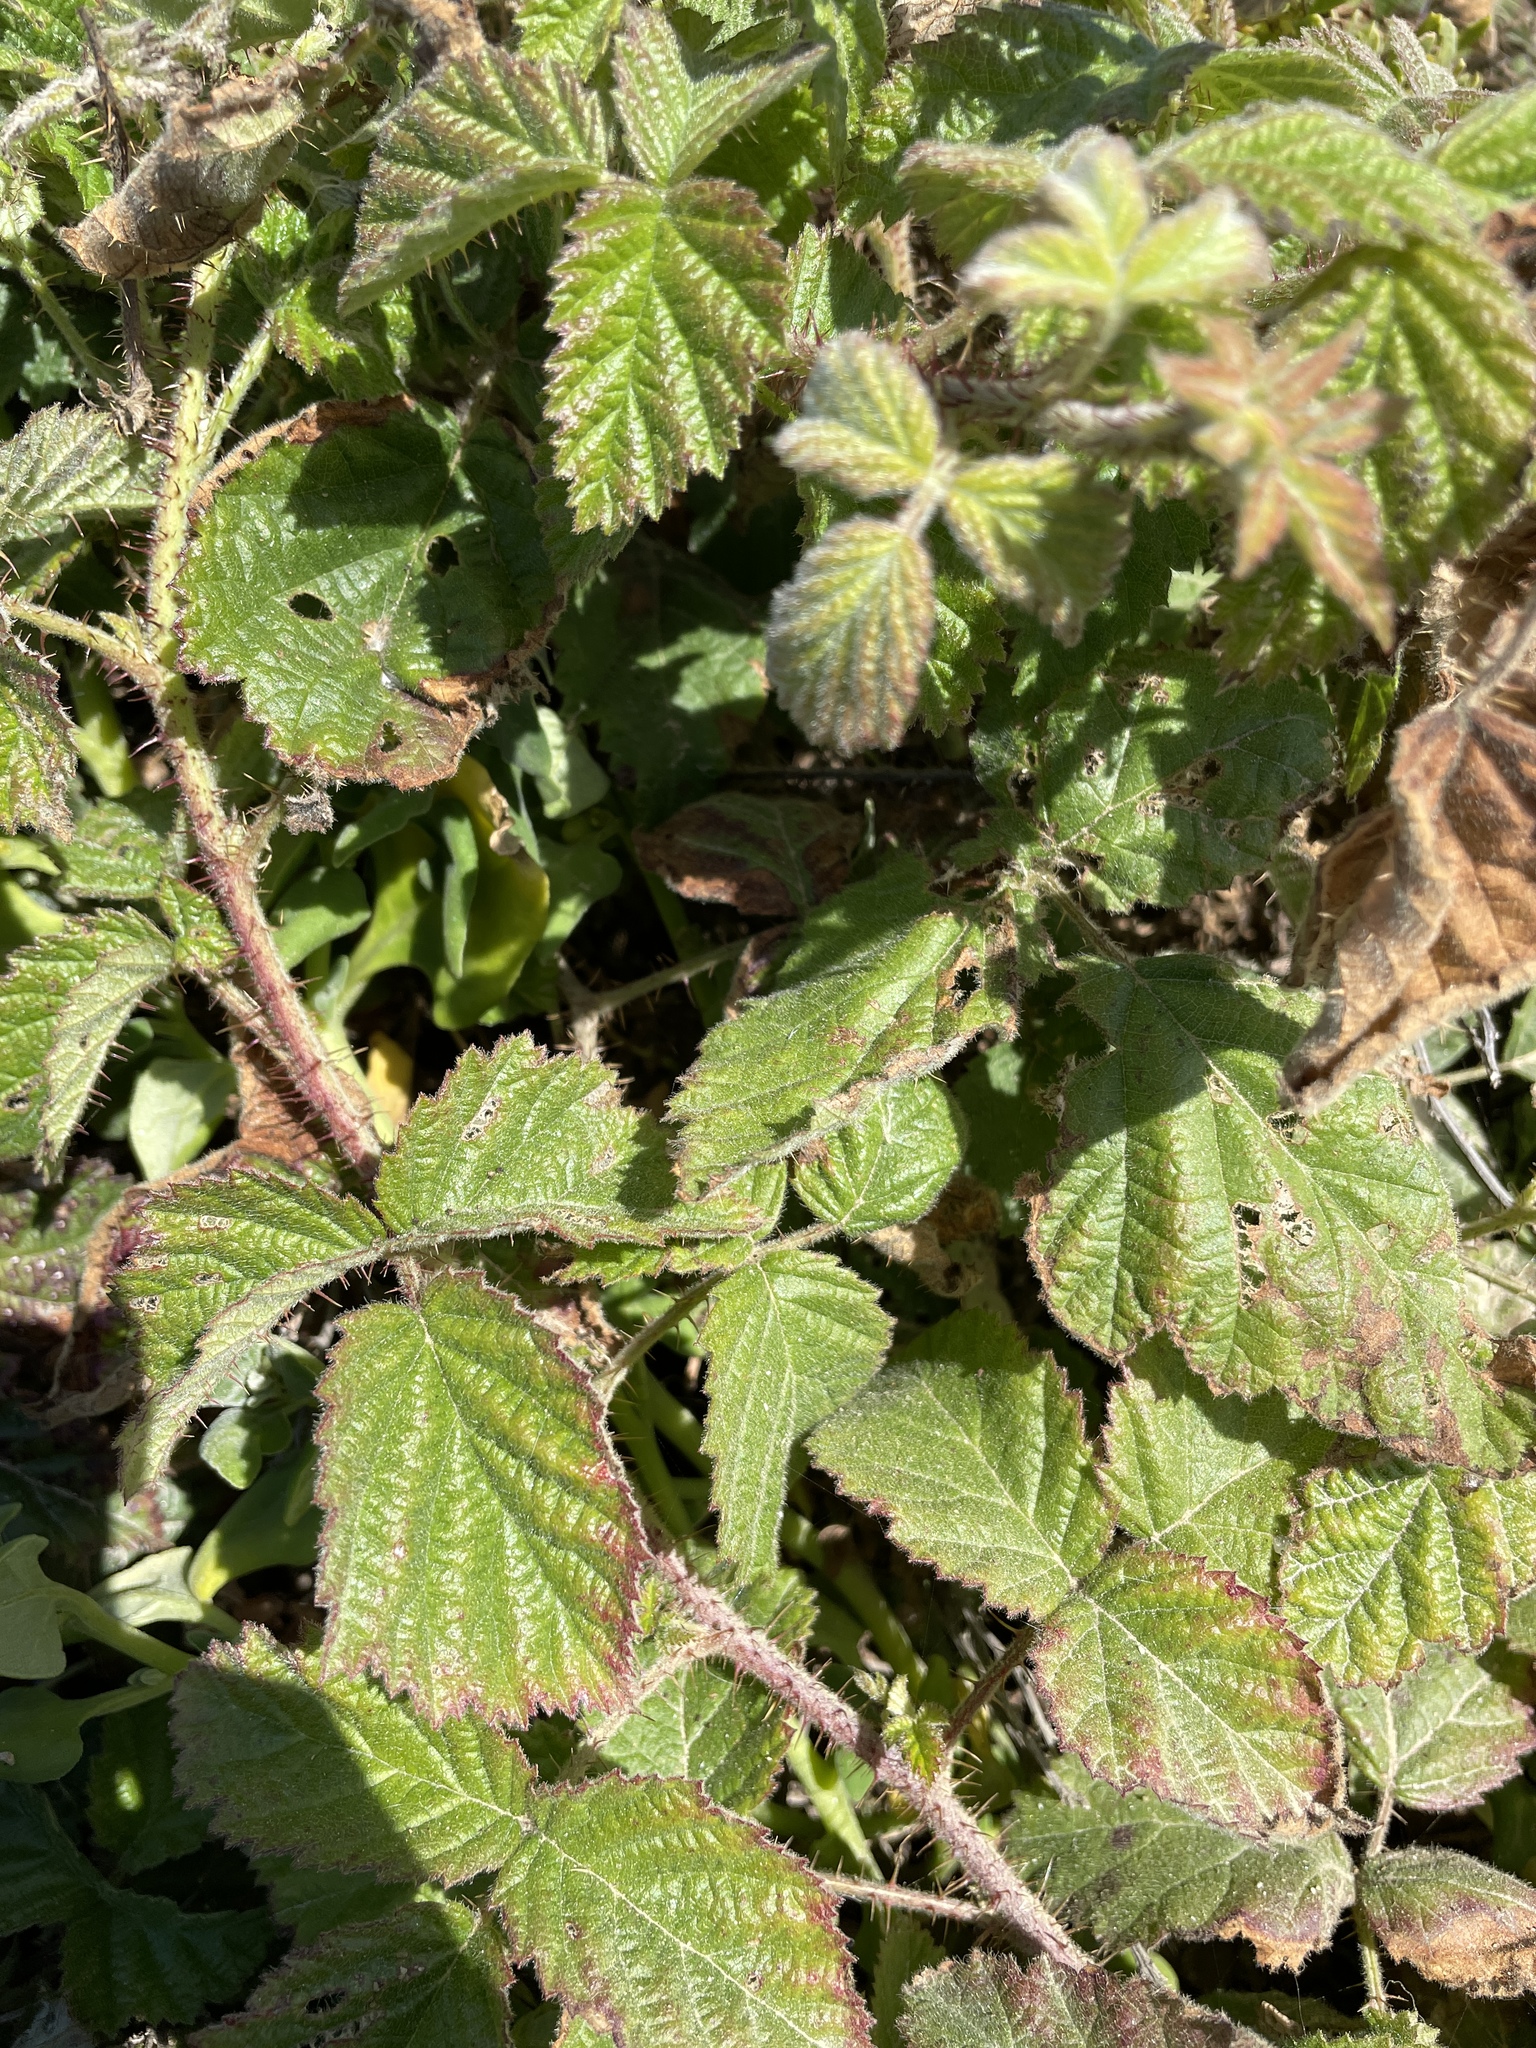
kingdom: Plantae
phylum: Tracheophyta
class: Magnoliopsida
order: Rosales
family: Rosaceae
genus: Rubus
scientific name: Rubus ursinus
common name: Pacific blackberry
